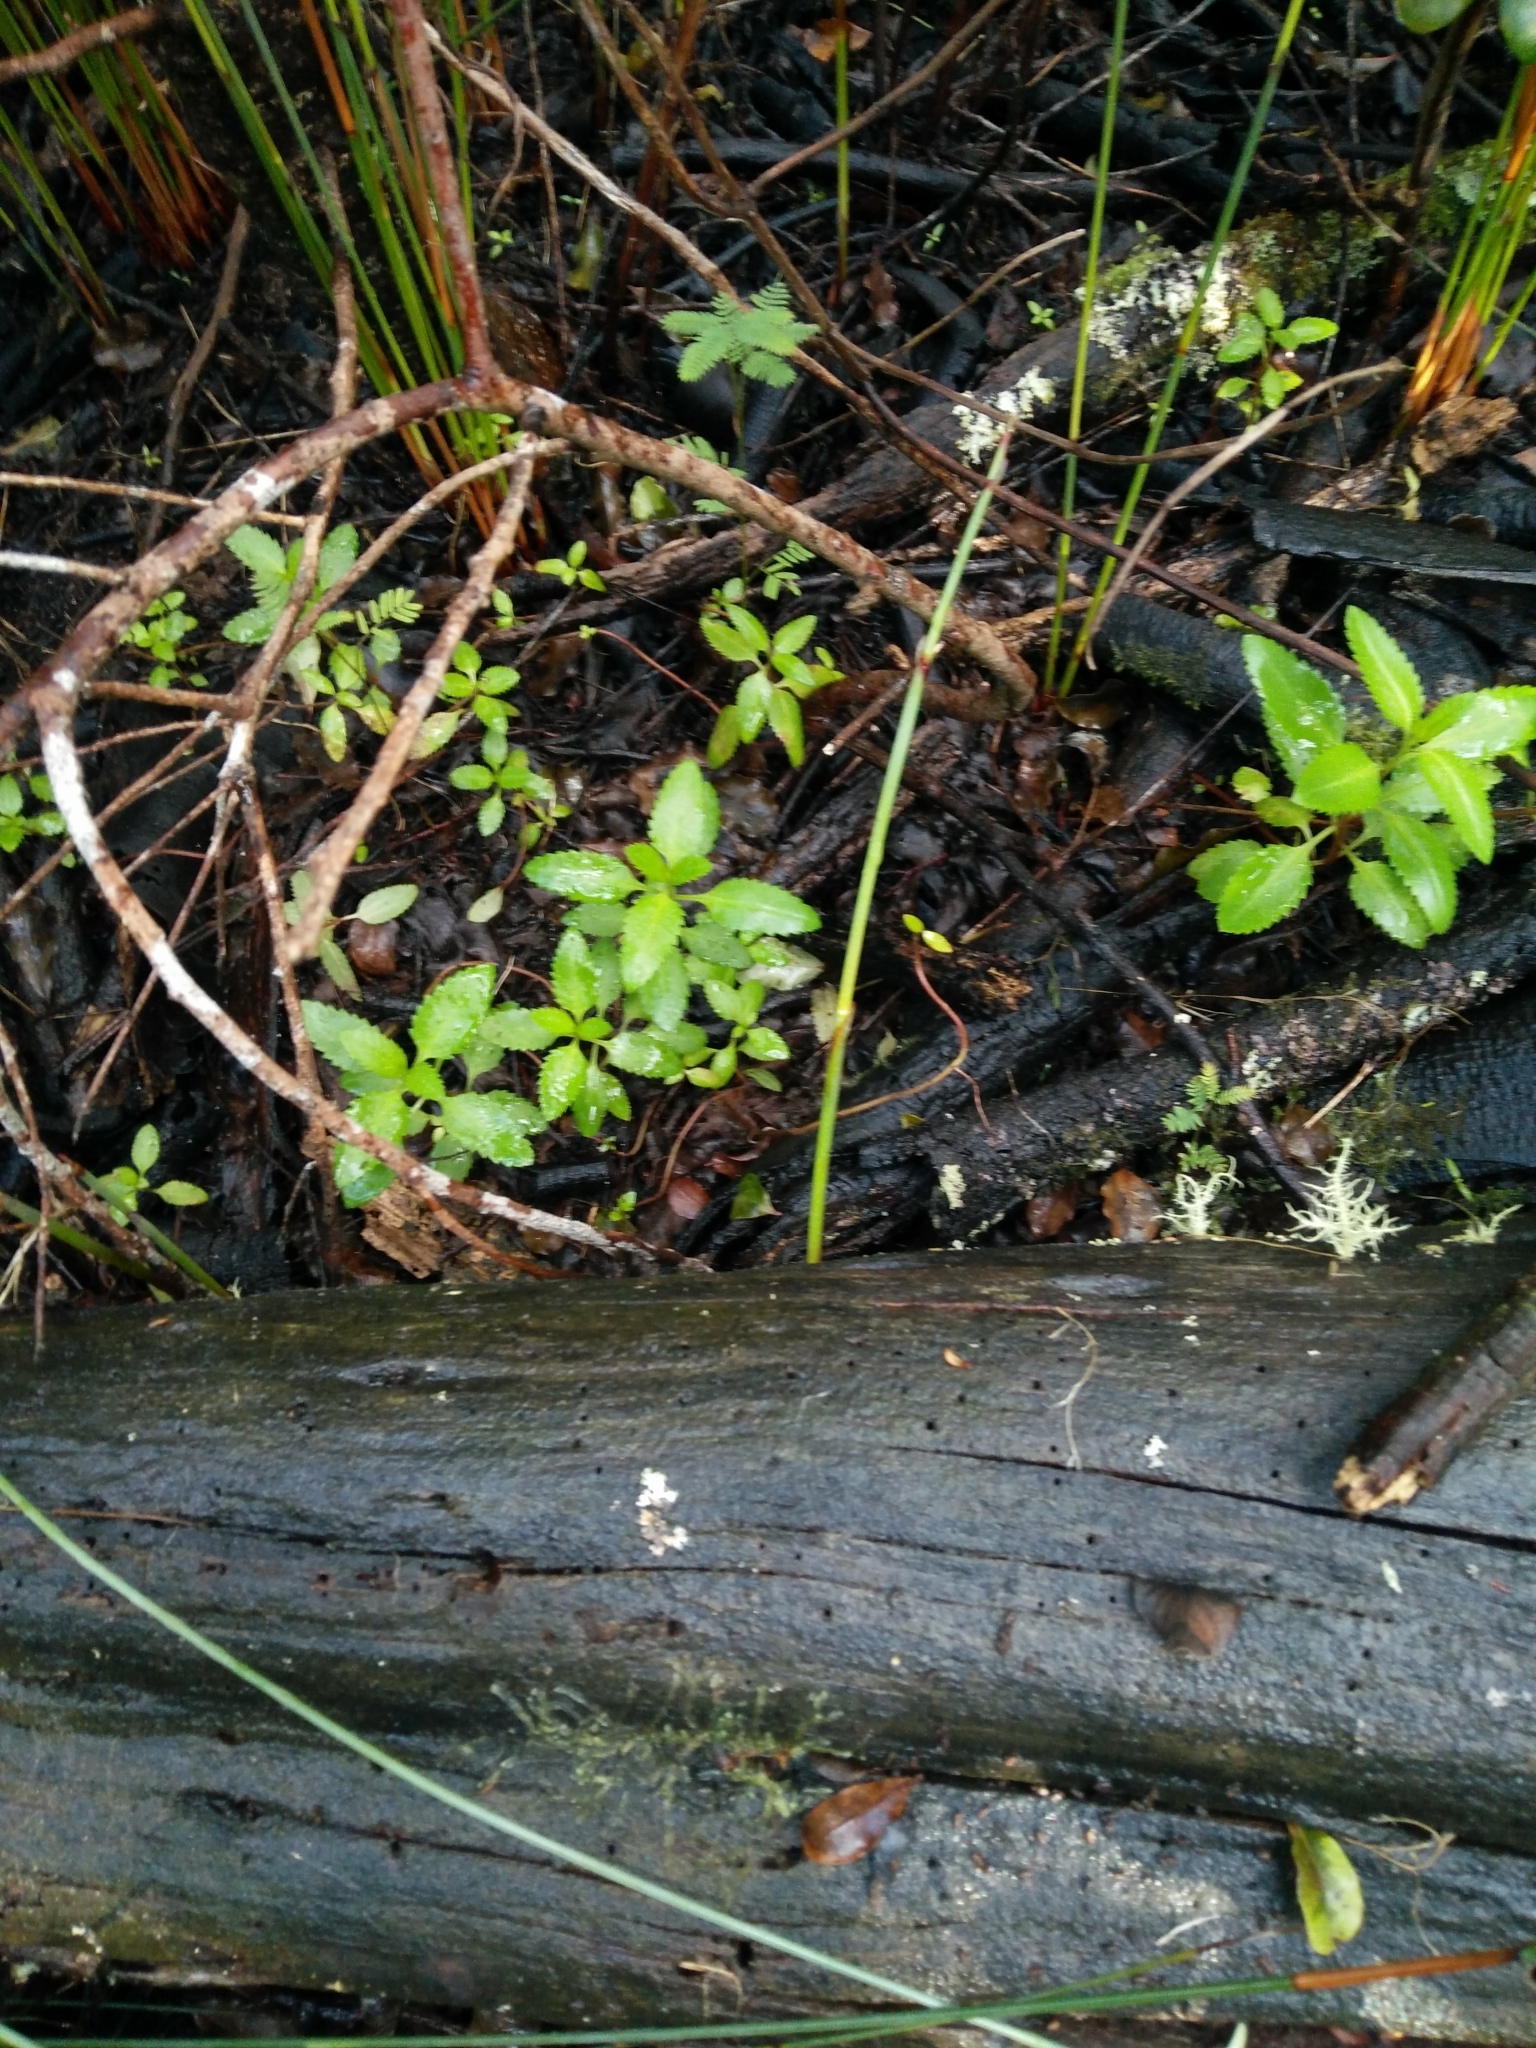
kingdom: Plantae
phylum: Tracheophyta
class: Magnoliopsida
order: Saxifragales
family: Haloragaceae
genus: Haloragis
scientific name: Haloragis erecta
